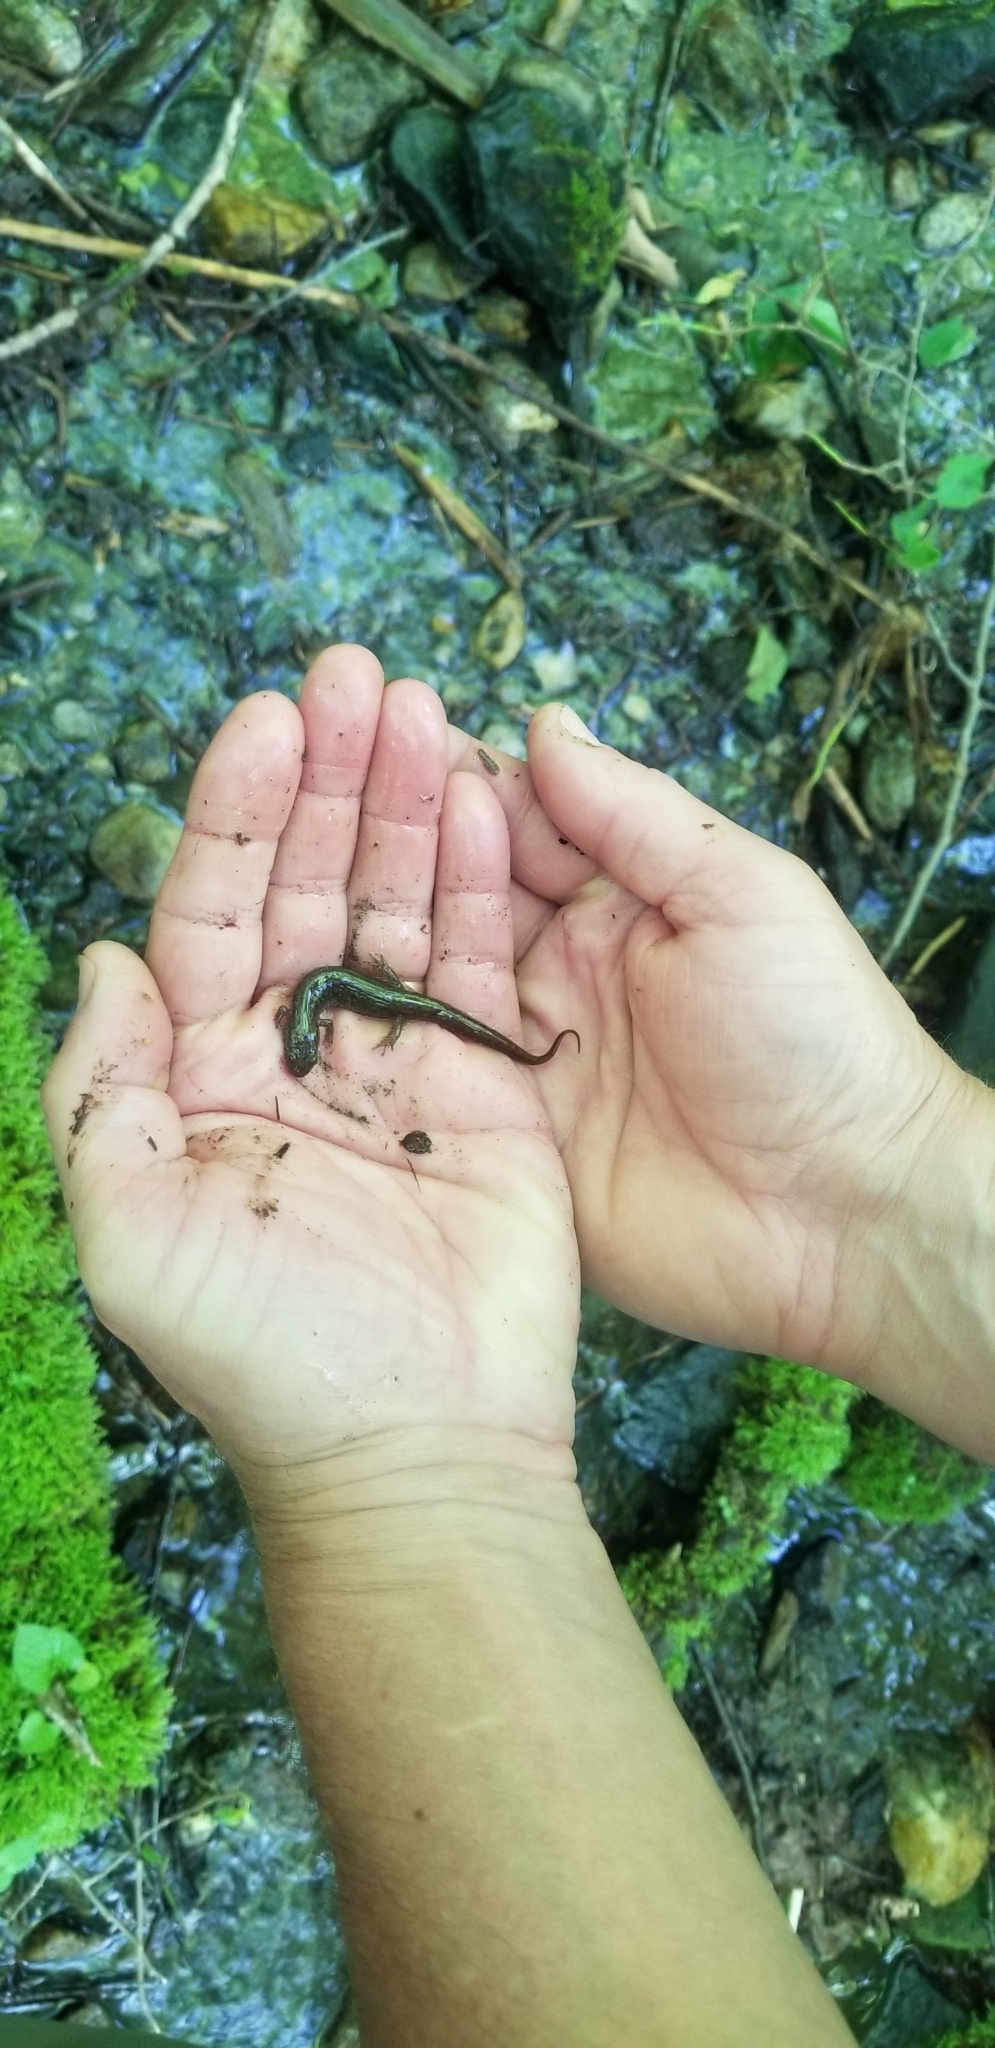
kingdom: Animalia
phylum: Chordata
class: Amphibia
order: Caudata
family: Plethodontidae
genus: Desmognathus
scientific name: Desmognathus fuscus
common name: Northern dusky salamander
